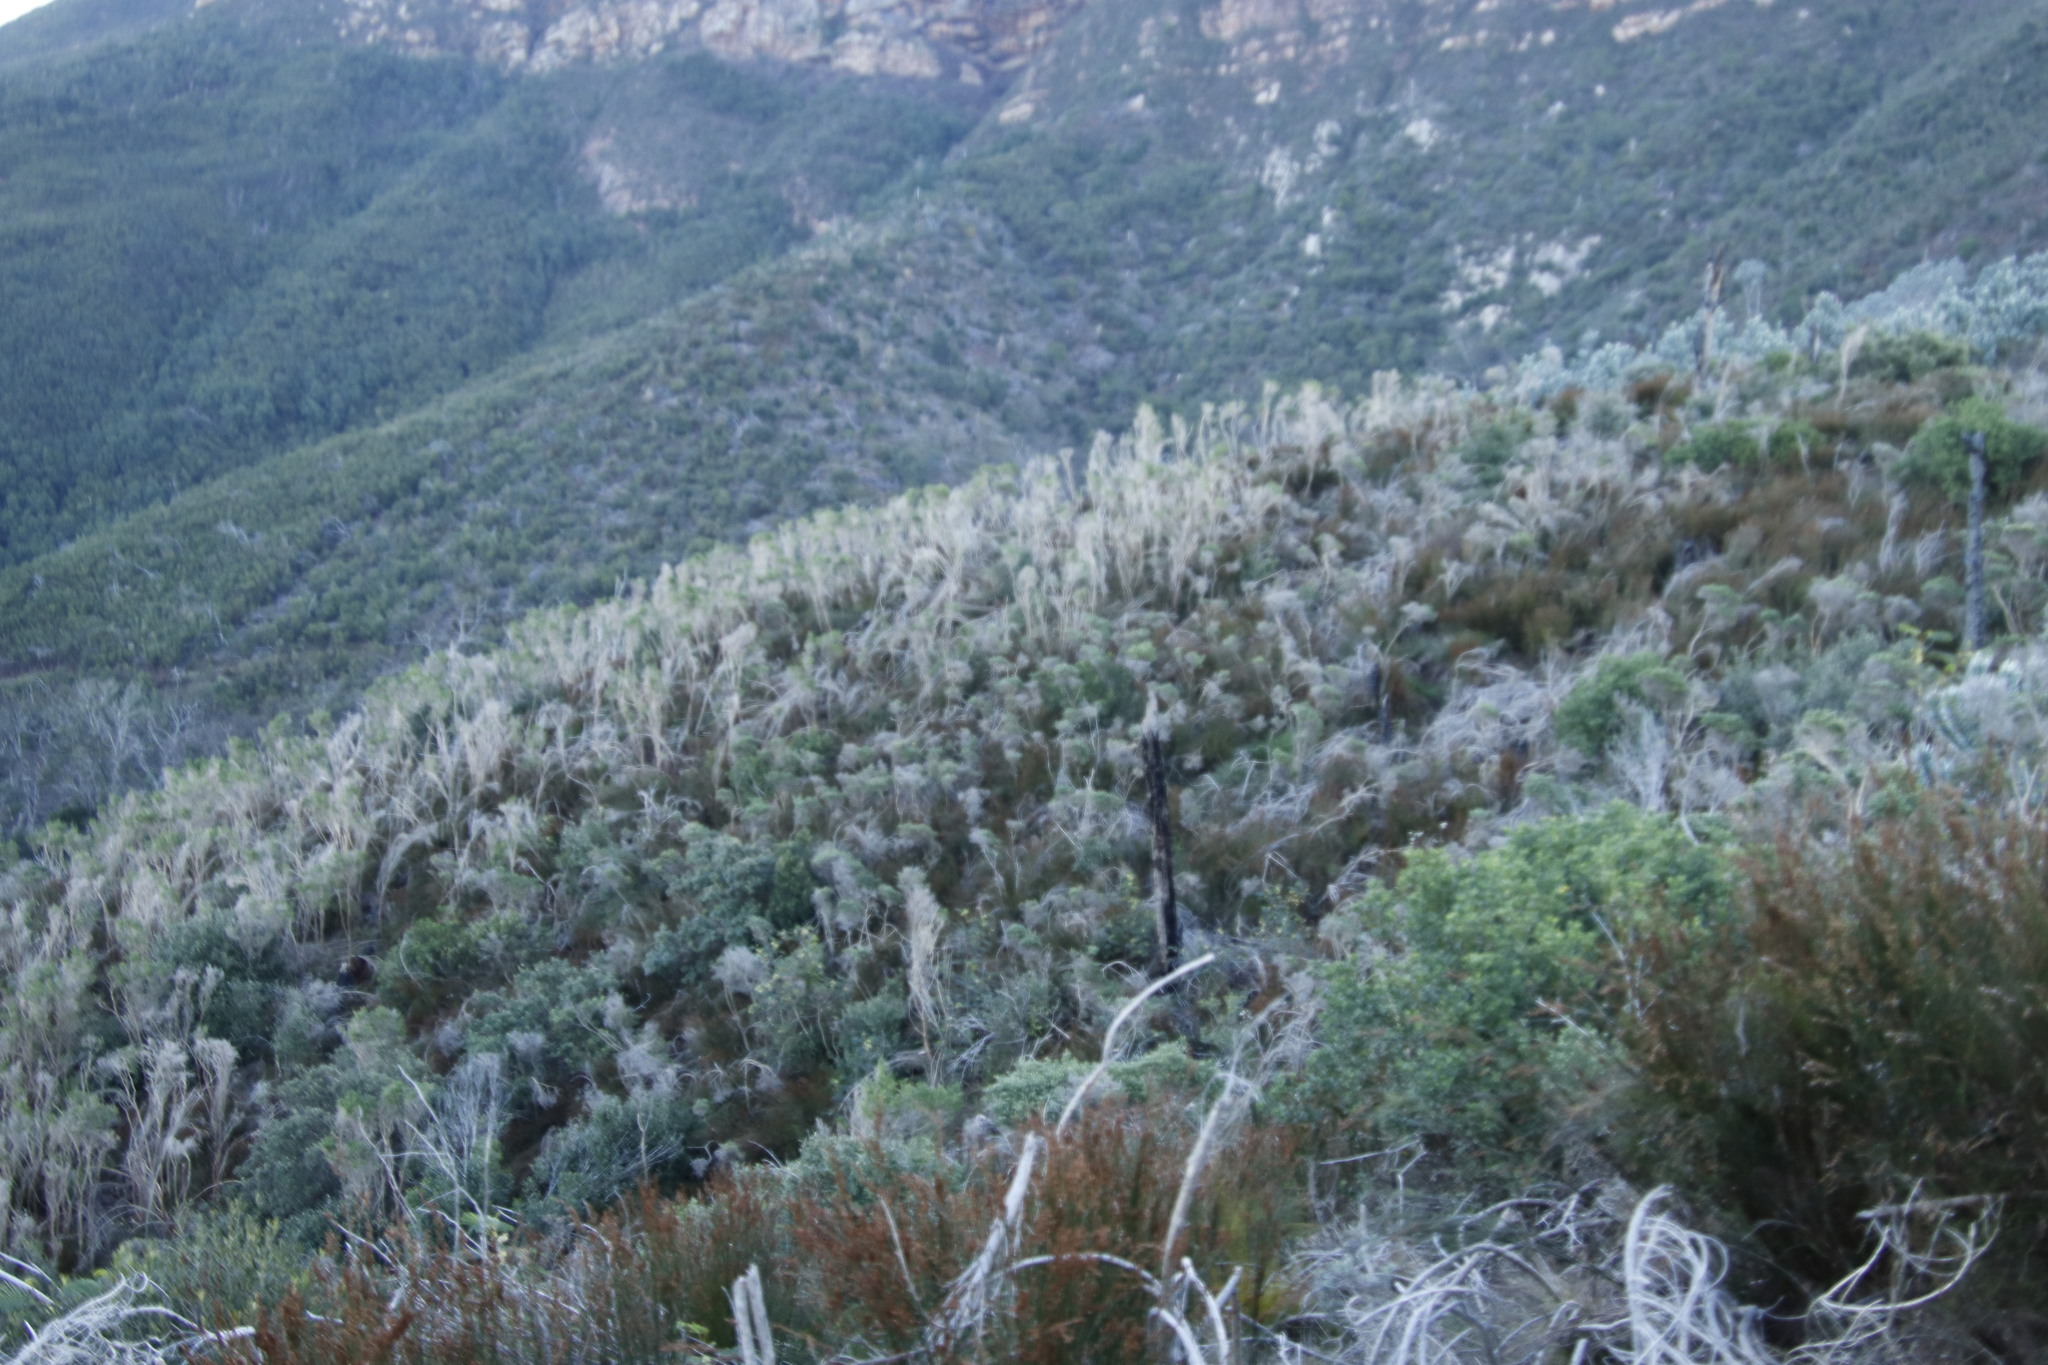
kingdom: Plantae
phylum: Tracheophyta
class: Magnoliopsida
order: Fabales
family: Fabaceae
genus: Aspalathus
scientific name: Aspalathus chenopoda
